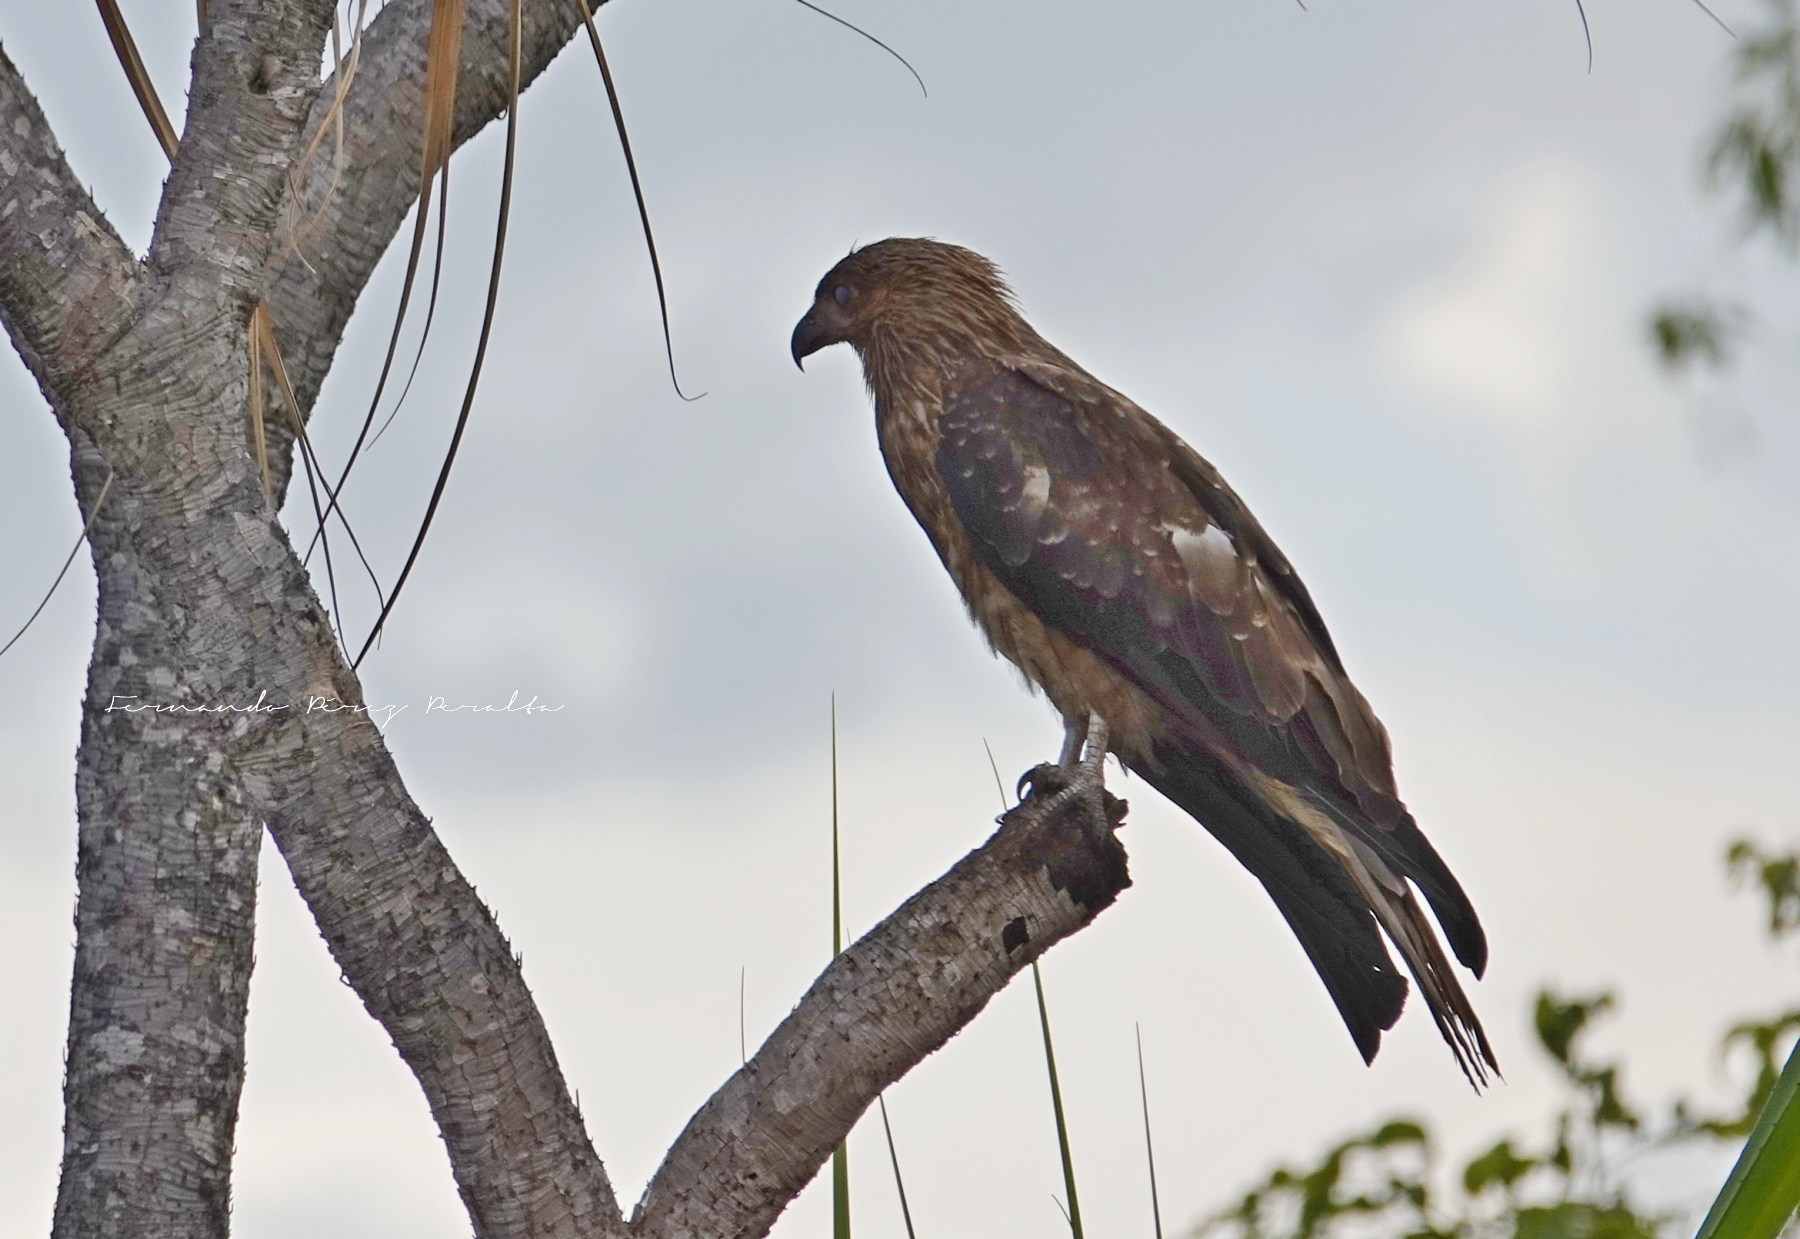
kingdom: Animalia
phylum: Chordata
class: Aves
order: Accipitriformes
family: Accipitridae
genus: Haliastur
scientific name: Haliastur sphenurus
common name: Whistling kite
